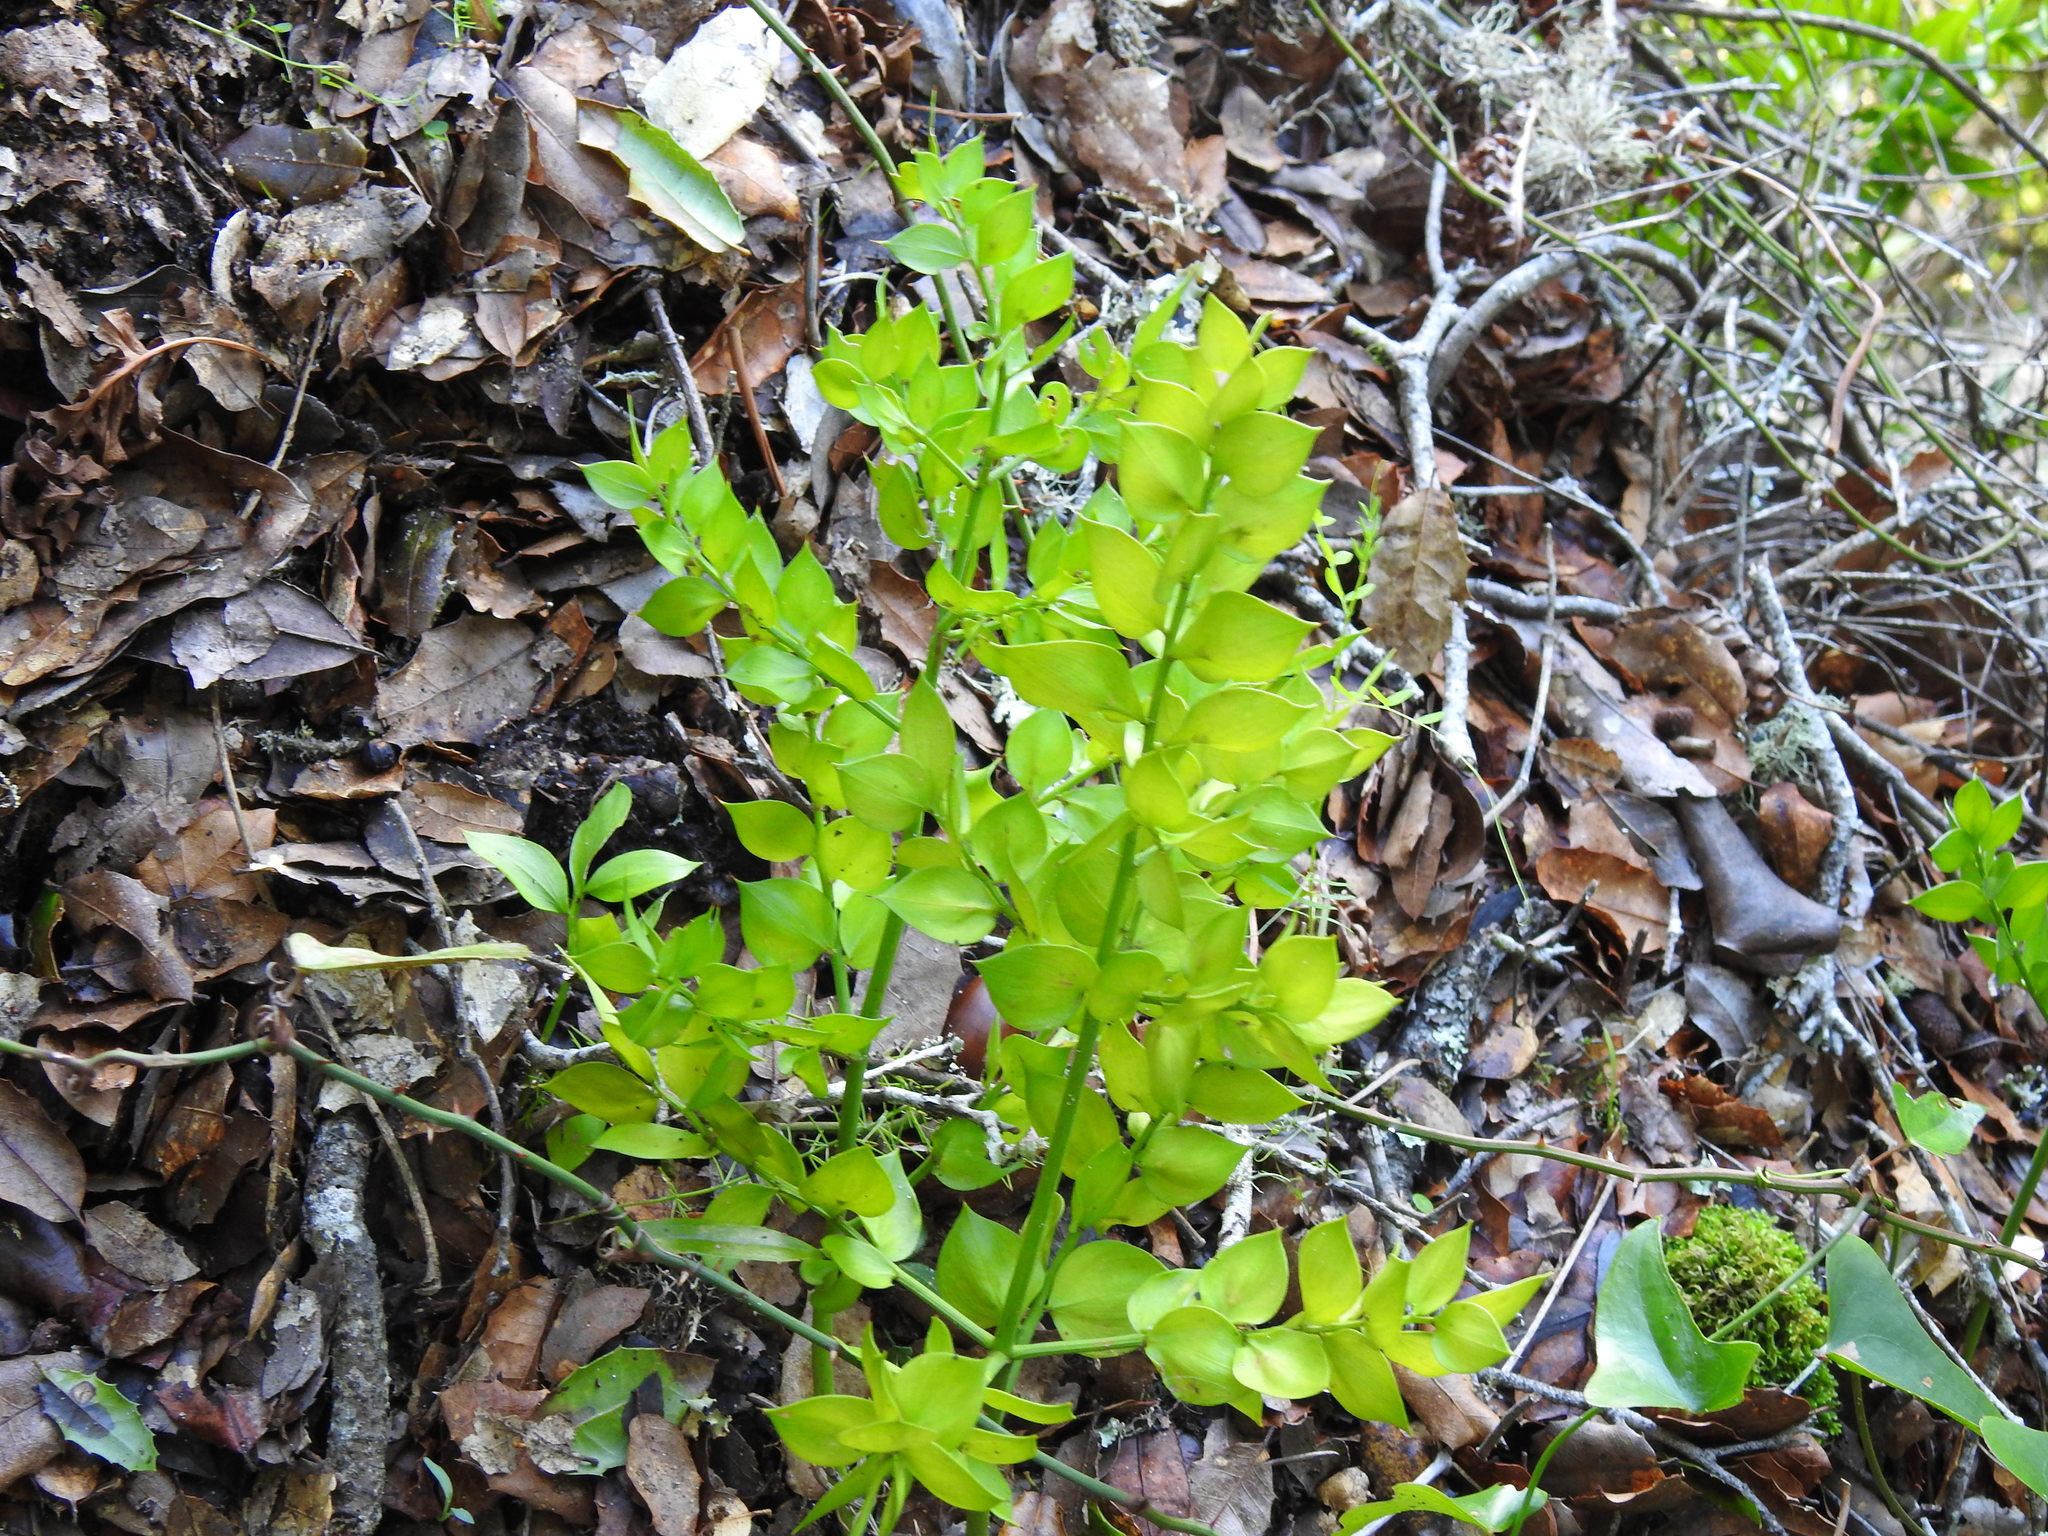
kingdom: Plantae
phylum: Tracheophyta
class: Liliopsida
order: Asparagales
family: Asparagaceae
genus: Ruscus
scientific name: Ruscus aculeatus
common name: Butcher's-broom
